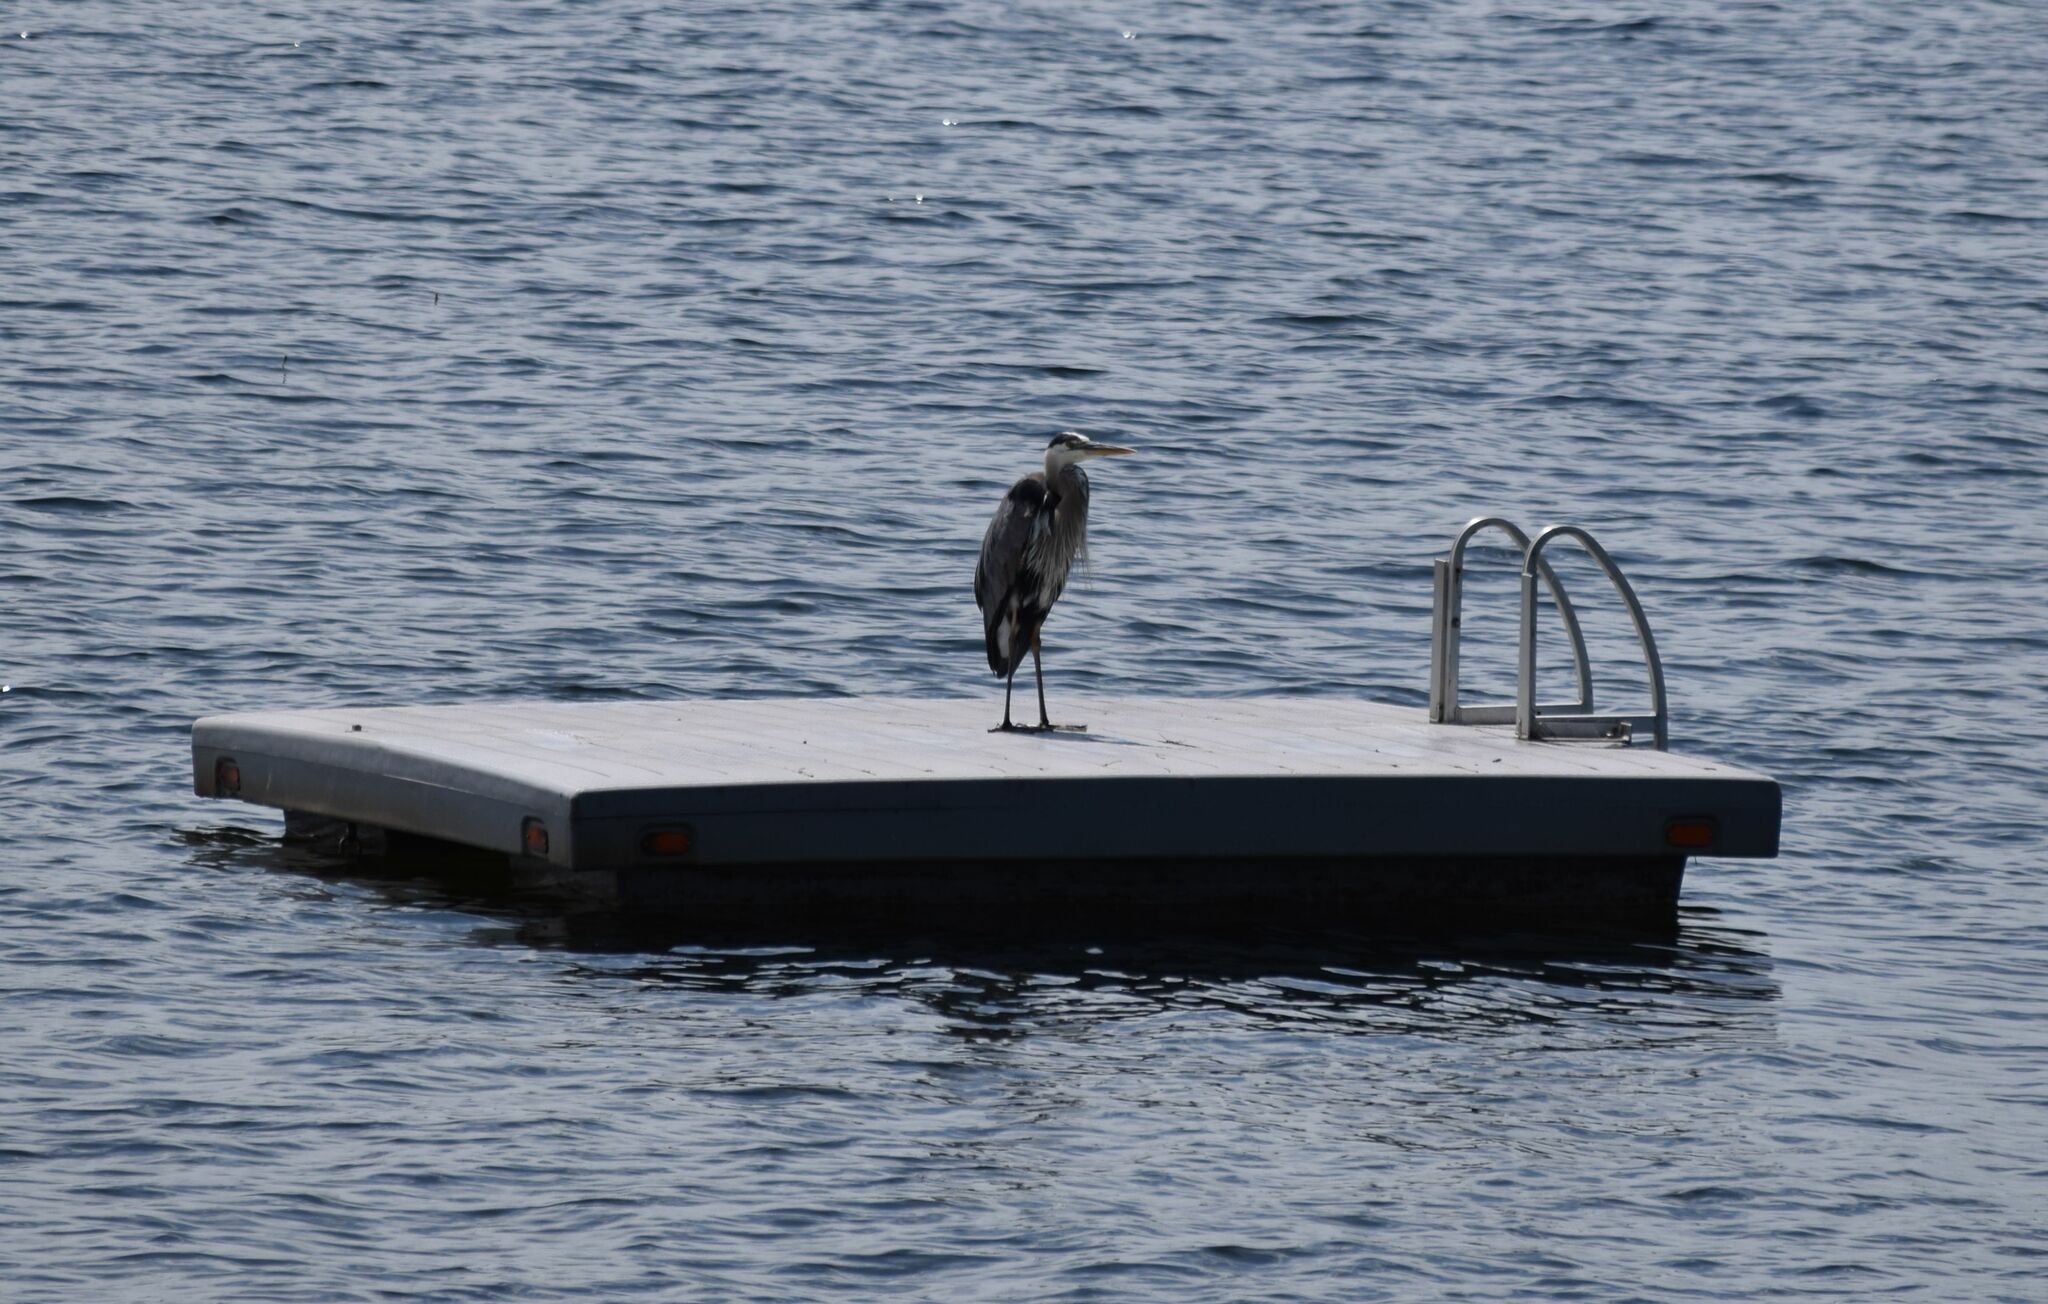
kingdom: Animalia
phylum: Chordata
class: Aves
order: Pelecaniformes
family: Ardeidae
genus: Ardea
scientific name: Ardea herodias
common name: Great blue heron
